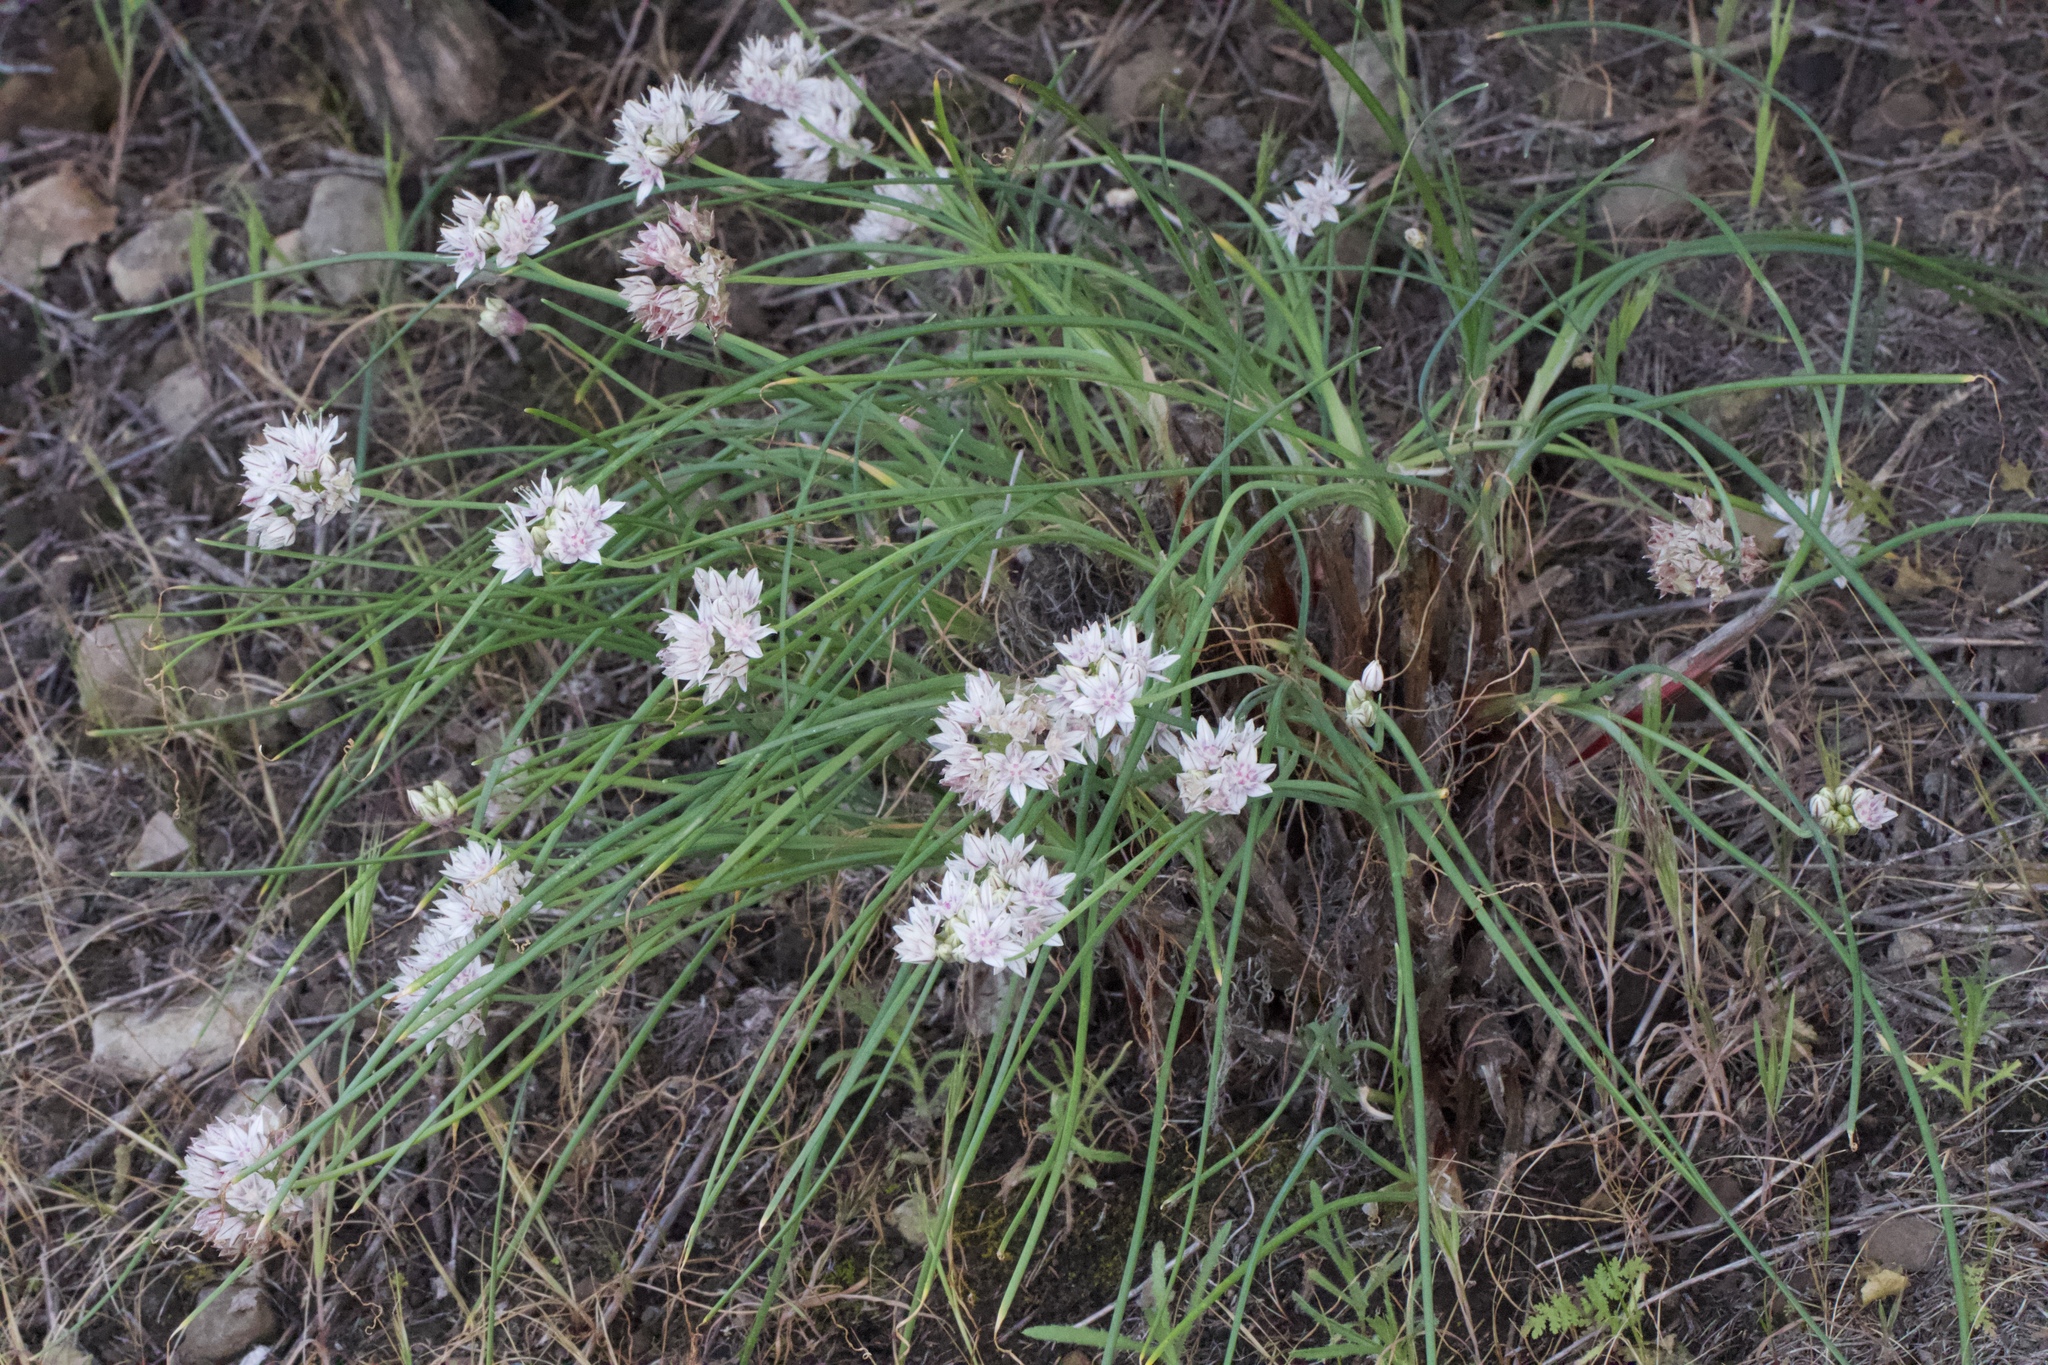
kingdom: Plantae
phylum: Tracheophyta
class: Liliopsida
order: Asparagales
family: Amaryllidaceae
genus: Allium
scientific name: Allium haematochiton
